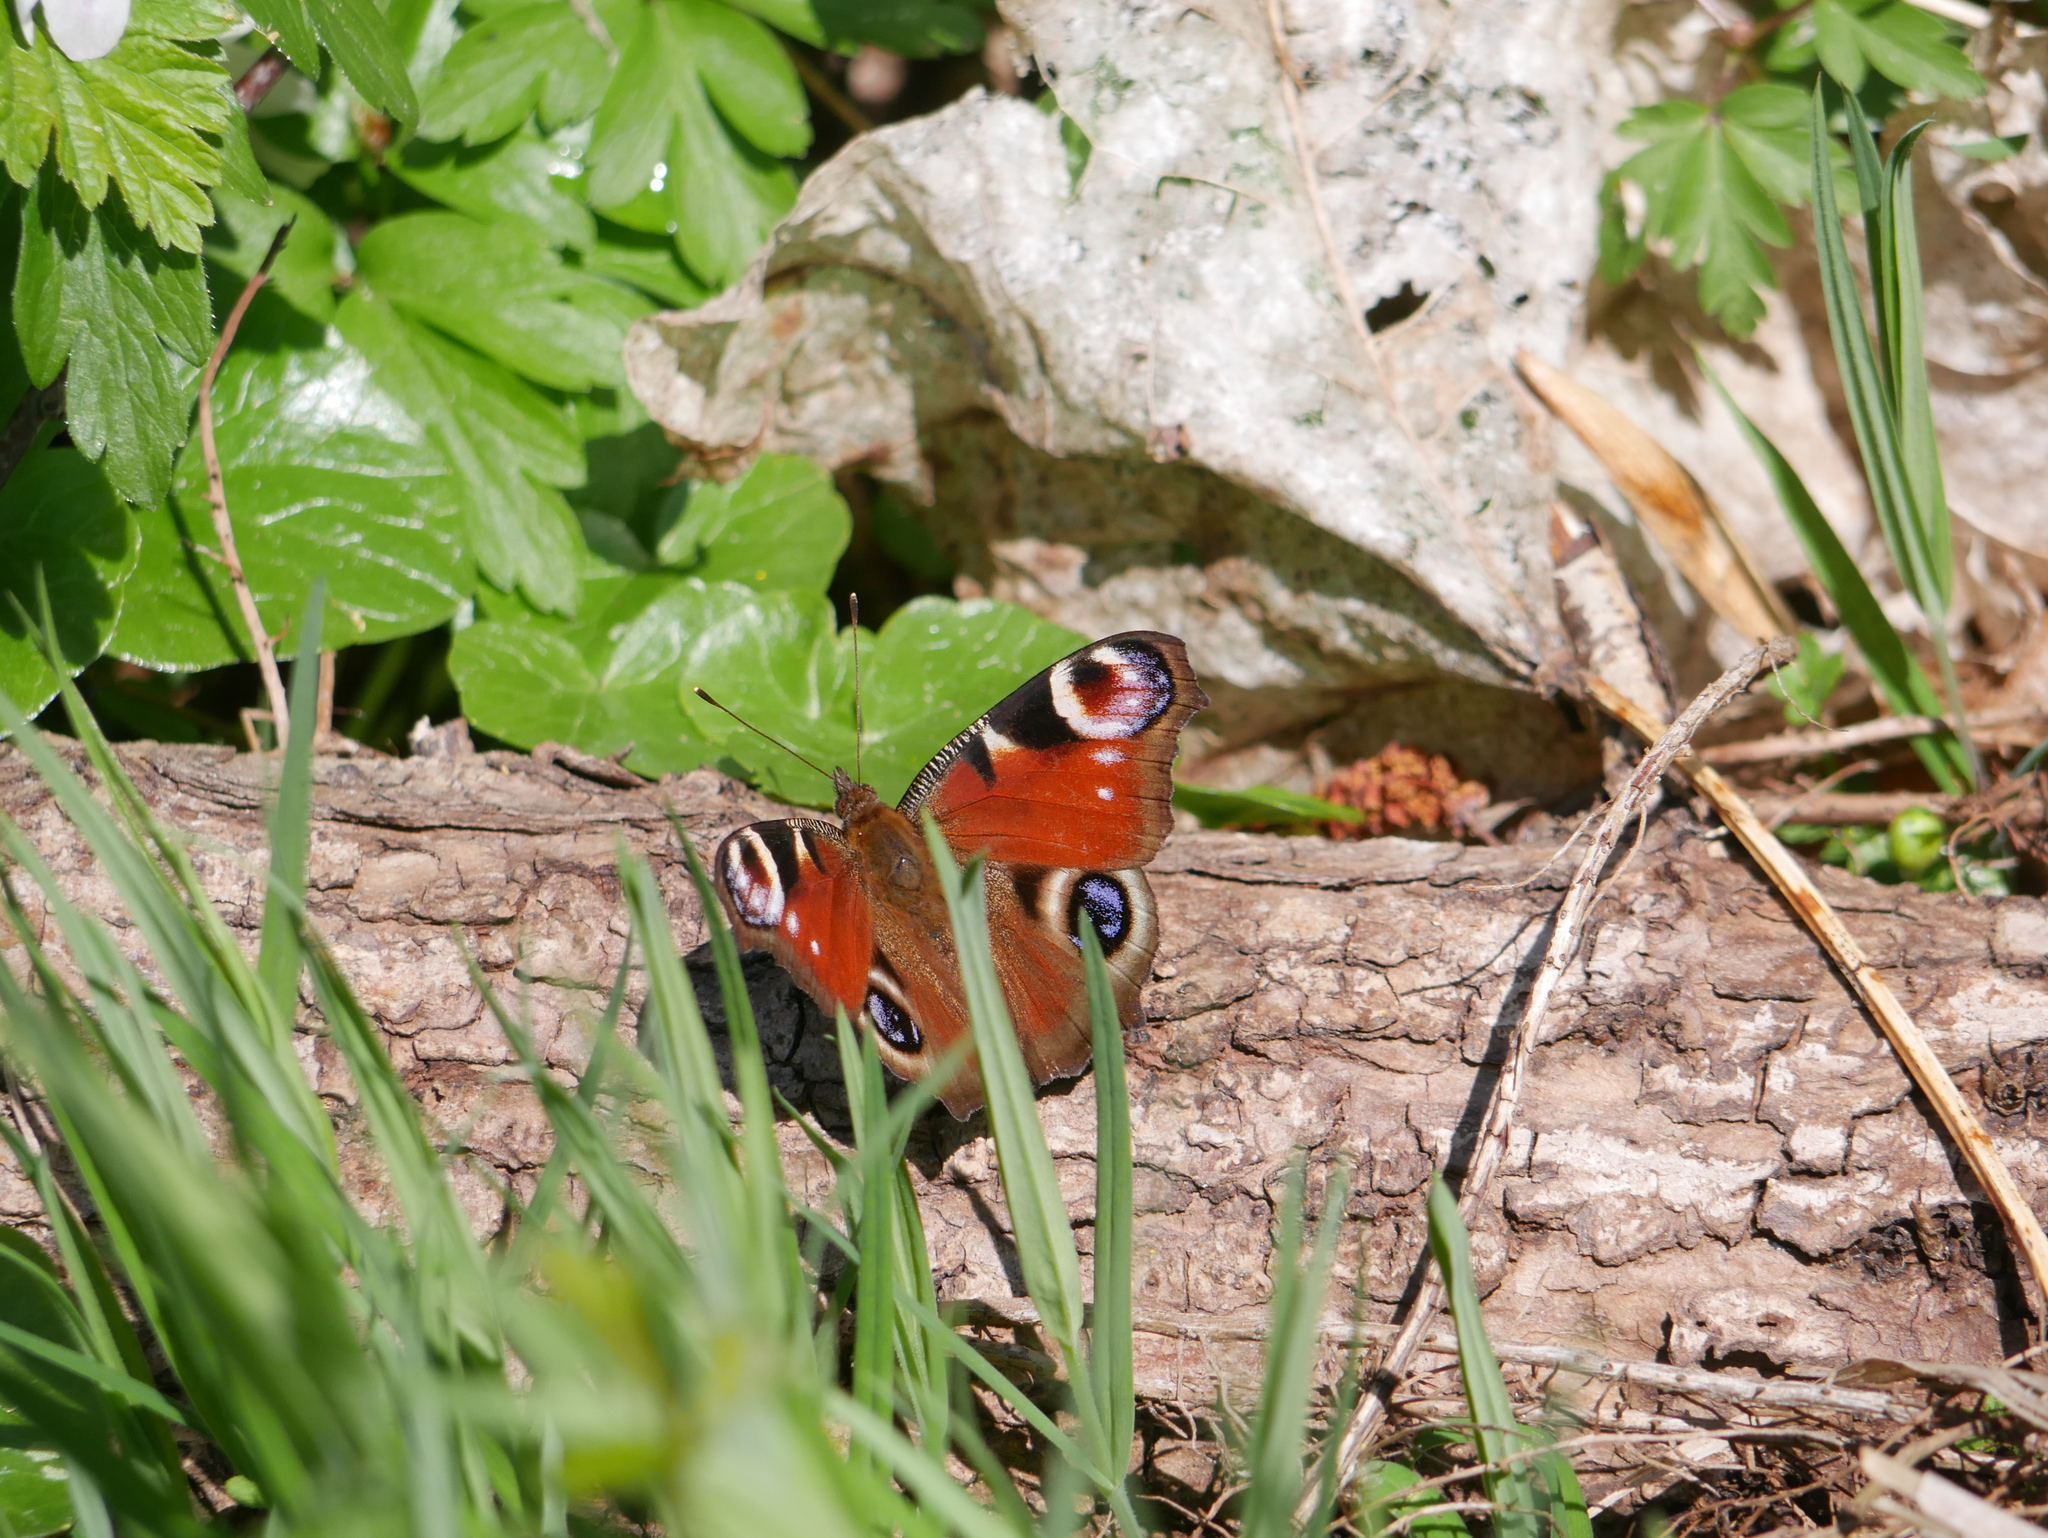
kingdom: Animalia
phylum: Arthropoda
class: Insecta
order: Lepidoptera
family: Nymphalidae
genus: Aglais
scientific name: Aglais io
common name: Peacock
